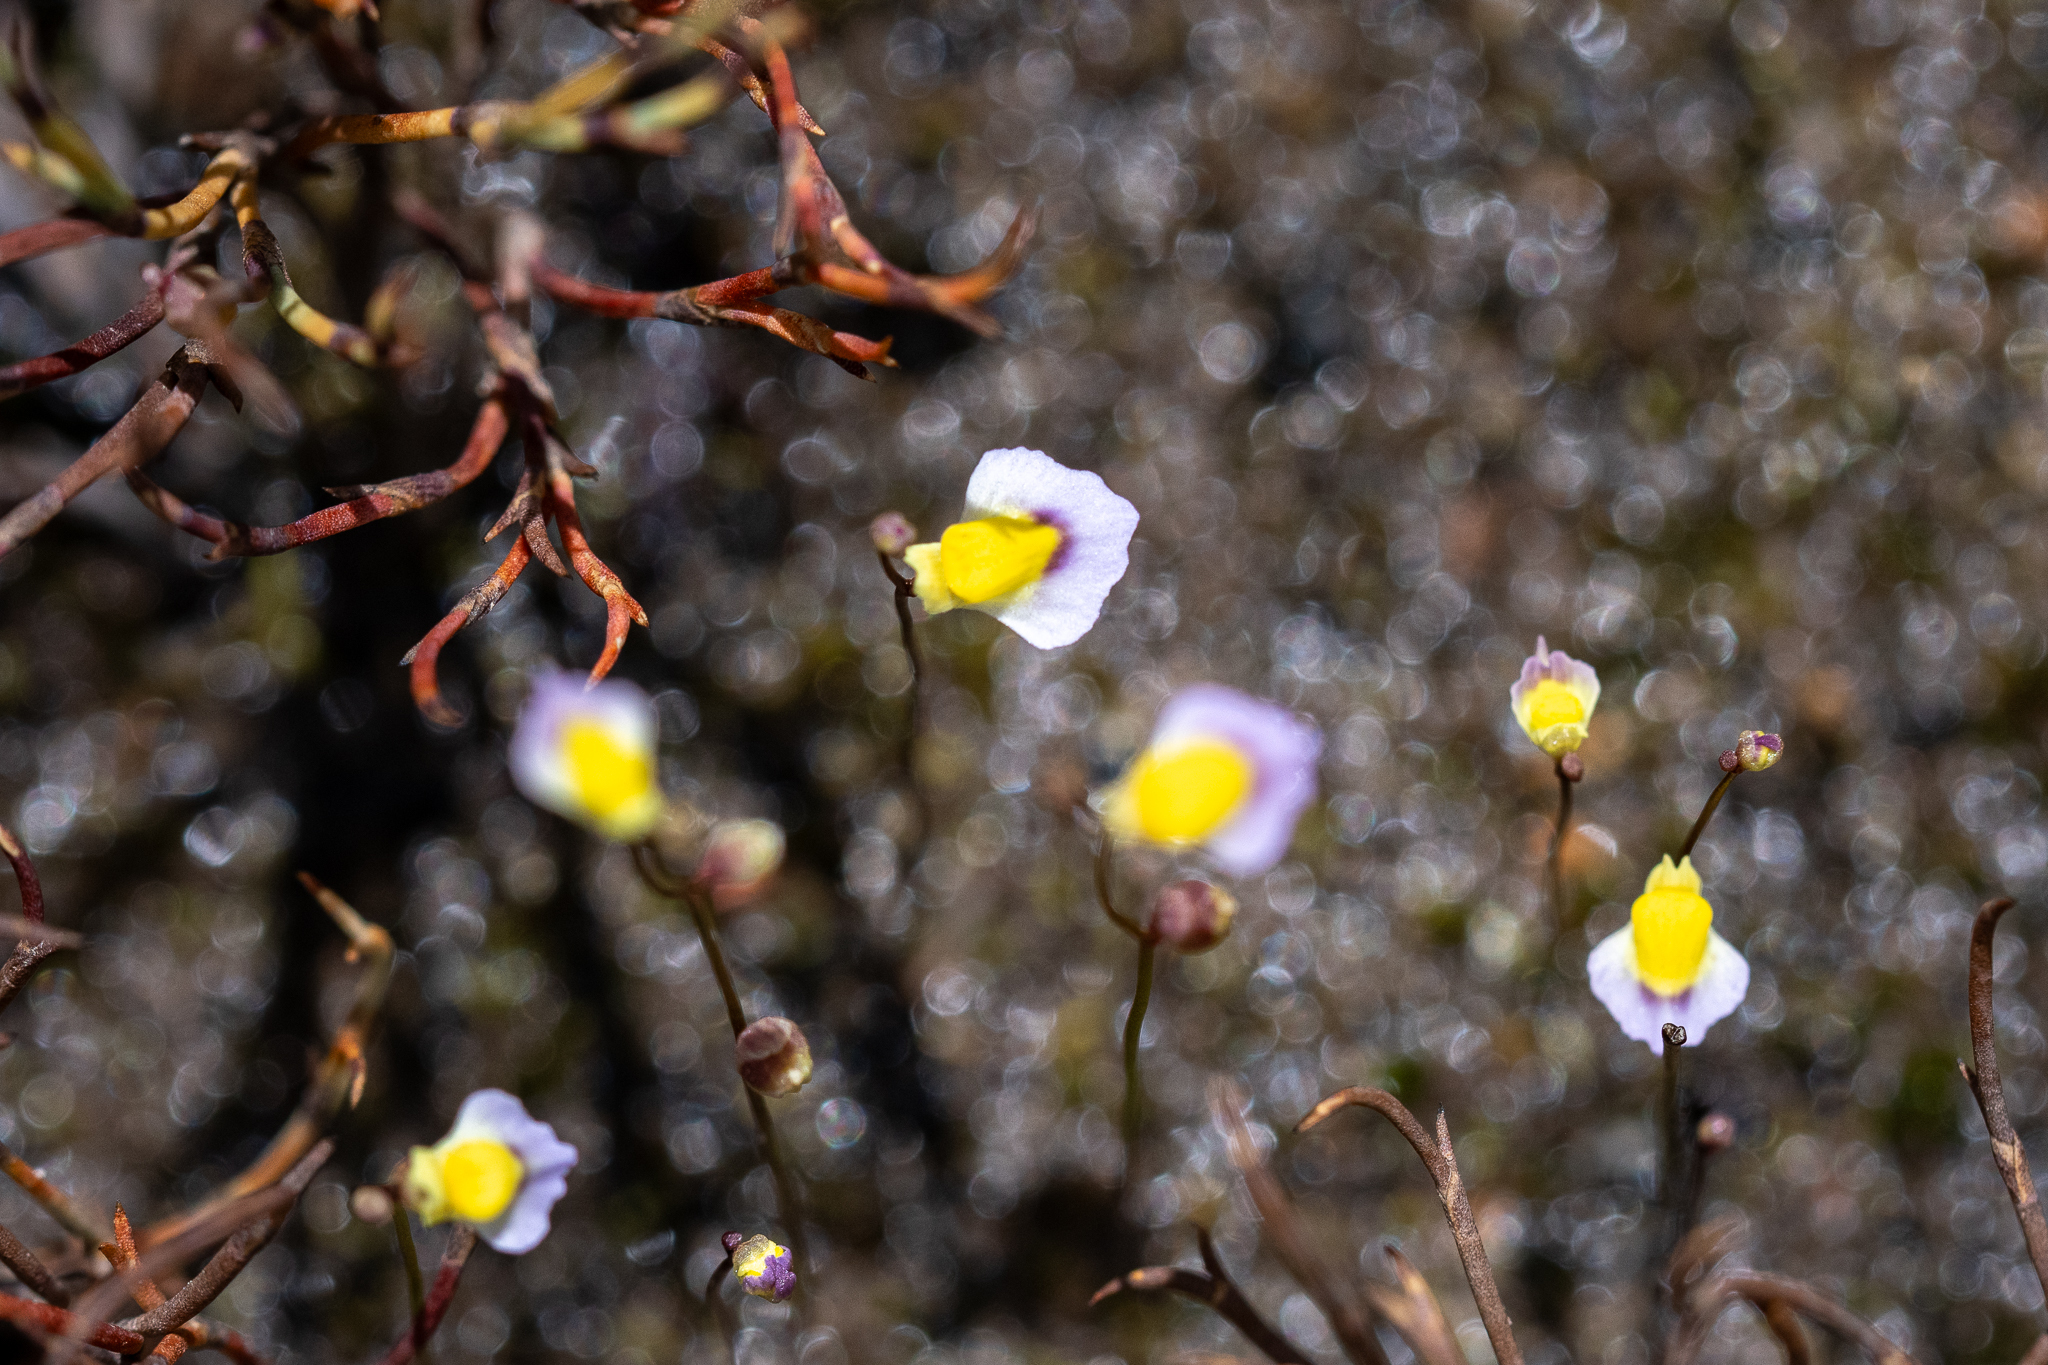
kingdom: Plantae
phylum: Tracheophyta
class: Magnoliopsida
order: Lamiales
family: Lentibulariaceae
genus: Utricularia
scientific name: Utricularia bisquamata
